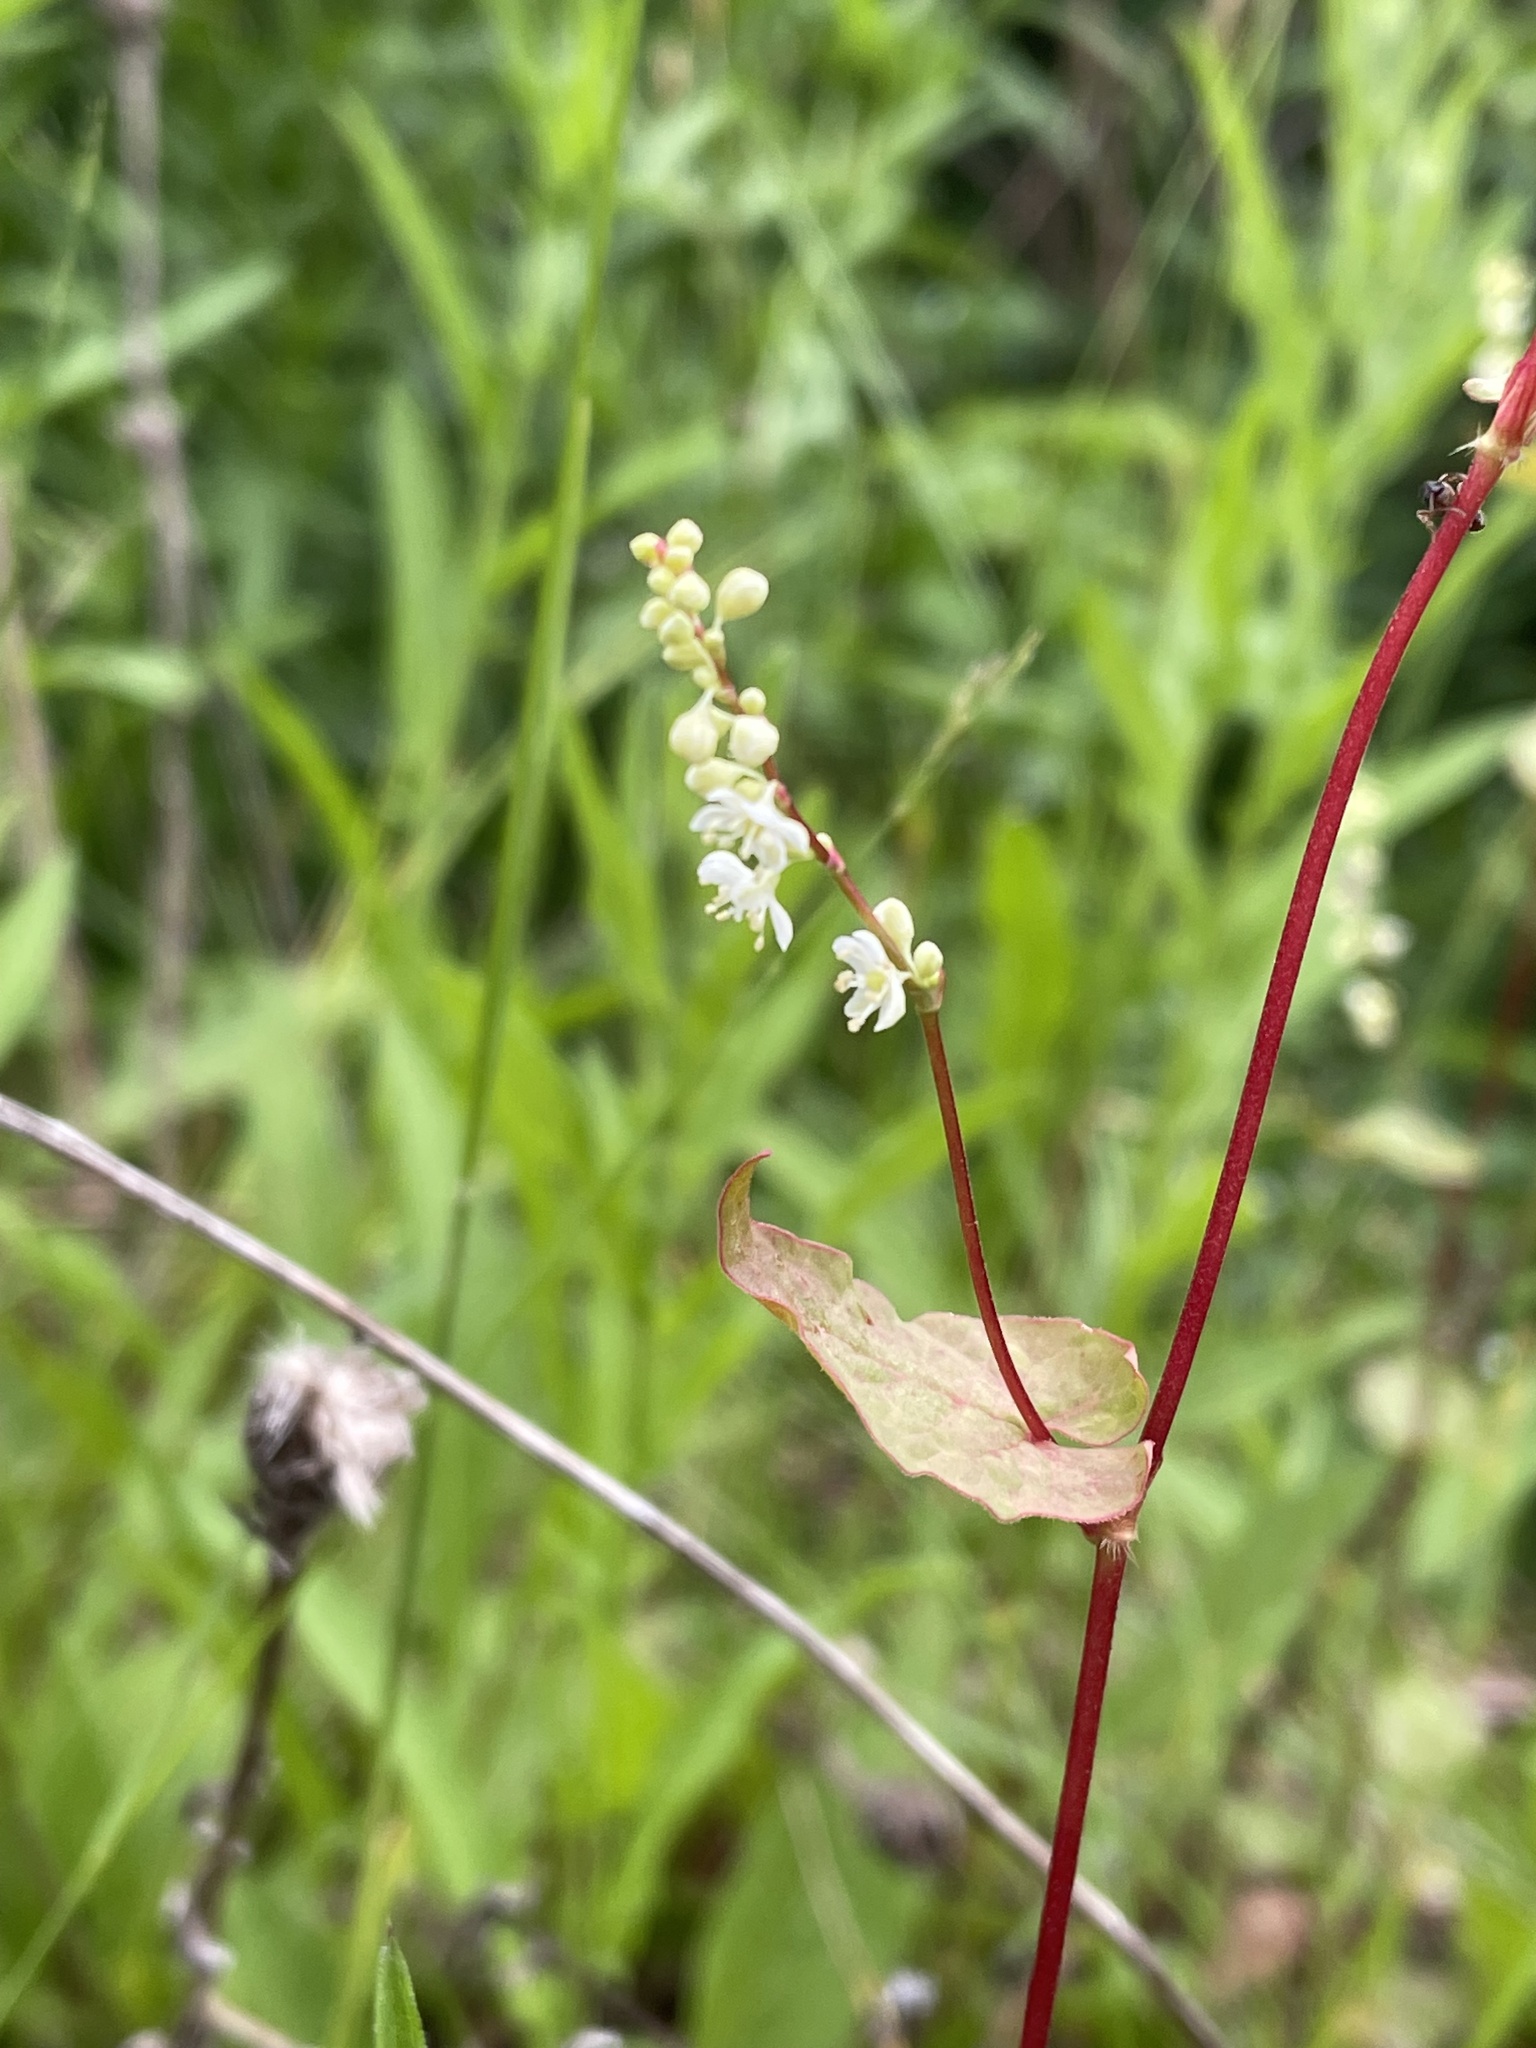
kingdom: Plantae
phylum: Tracheophyta
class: Magnoliopsida
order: Caryophyllales
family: Polygonaceae
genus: Parogonum
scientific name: Parogonum ciliinode
